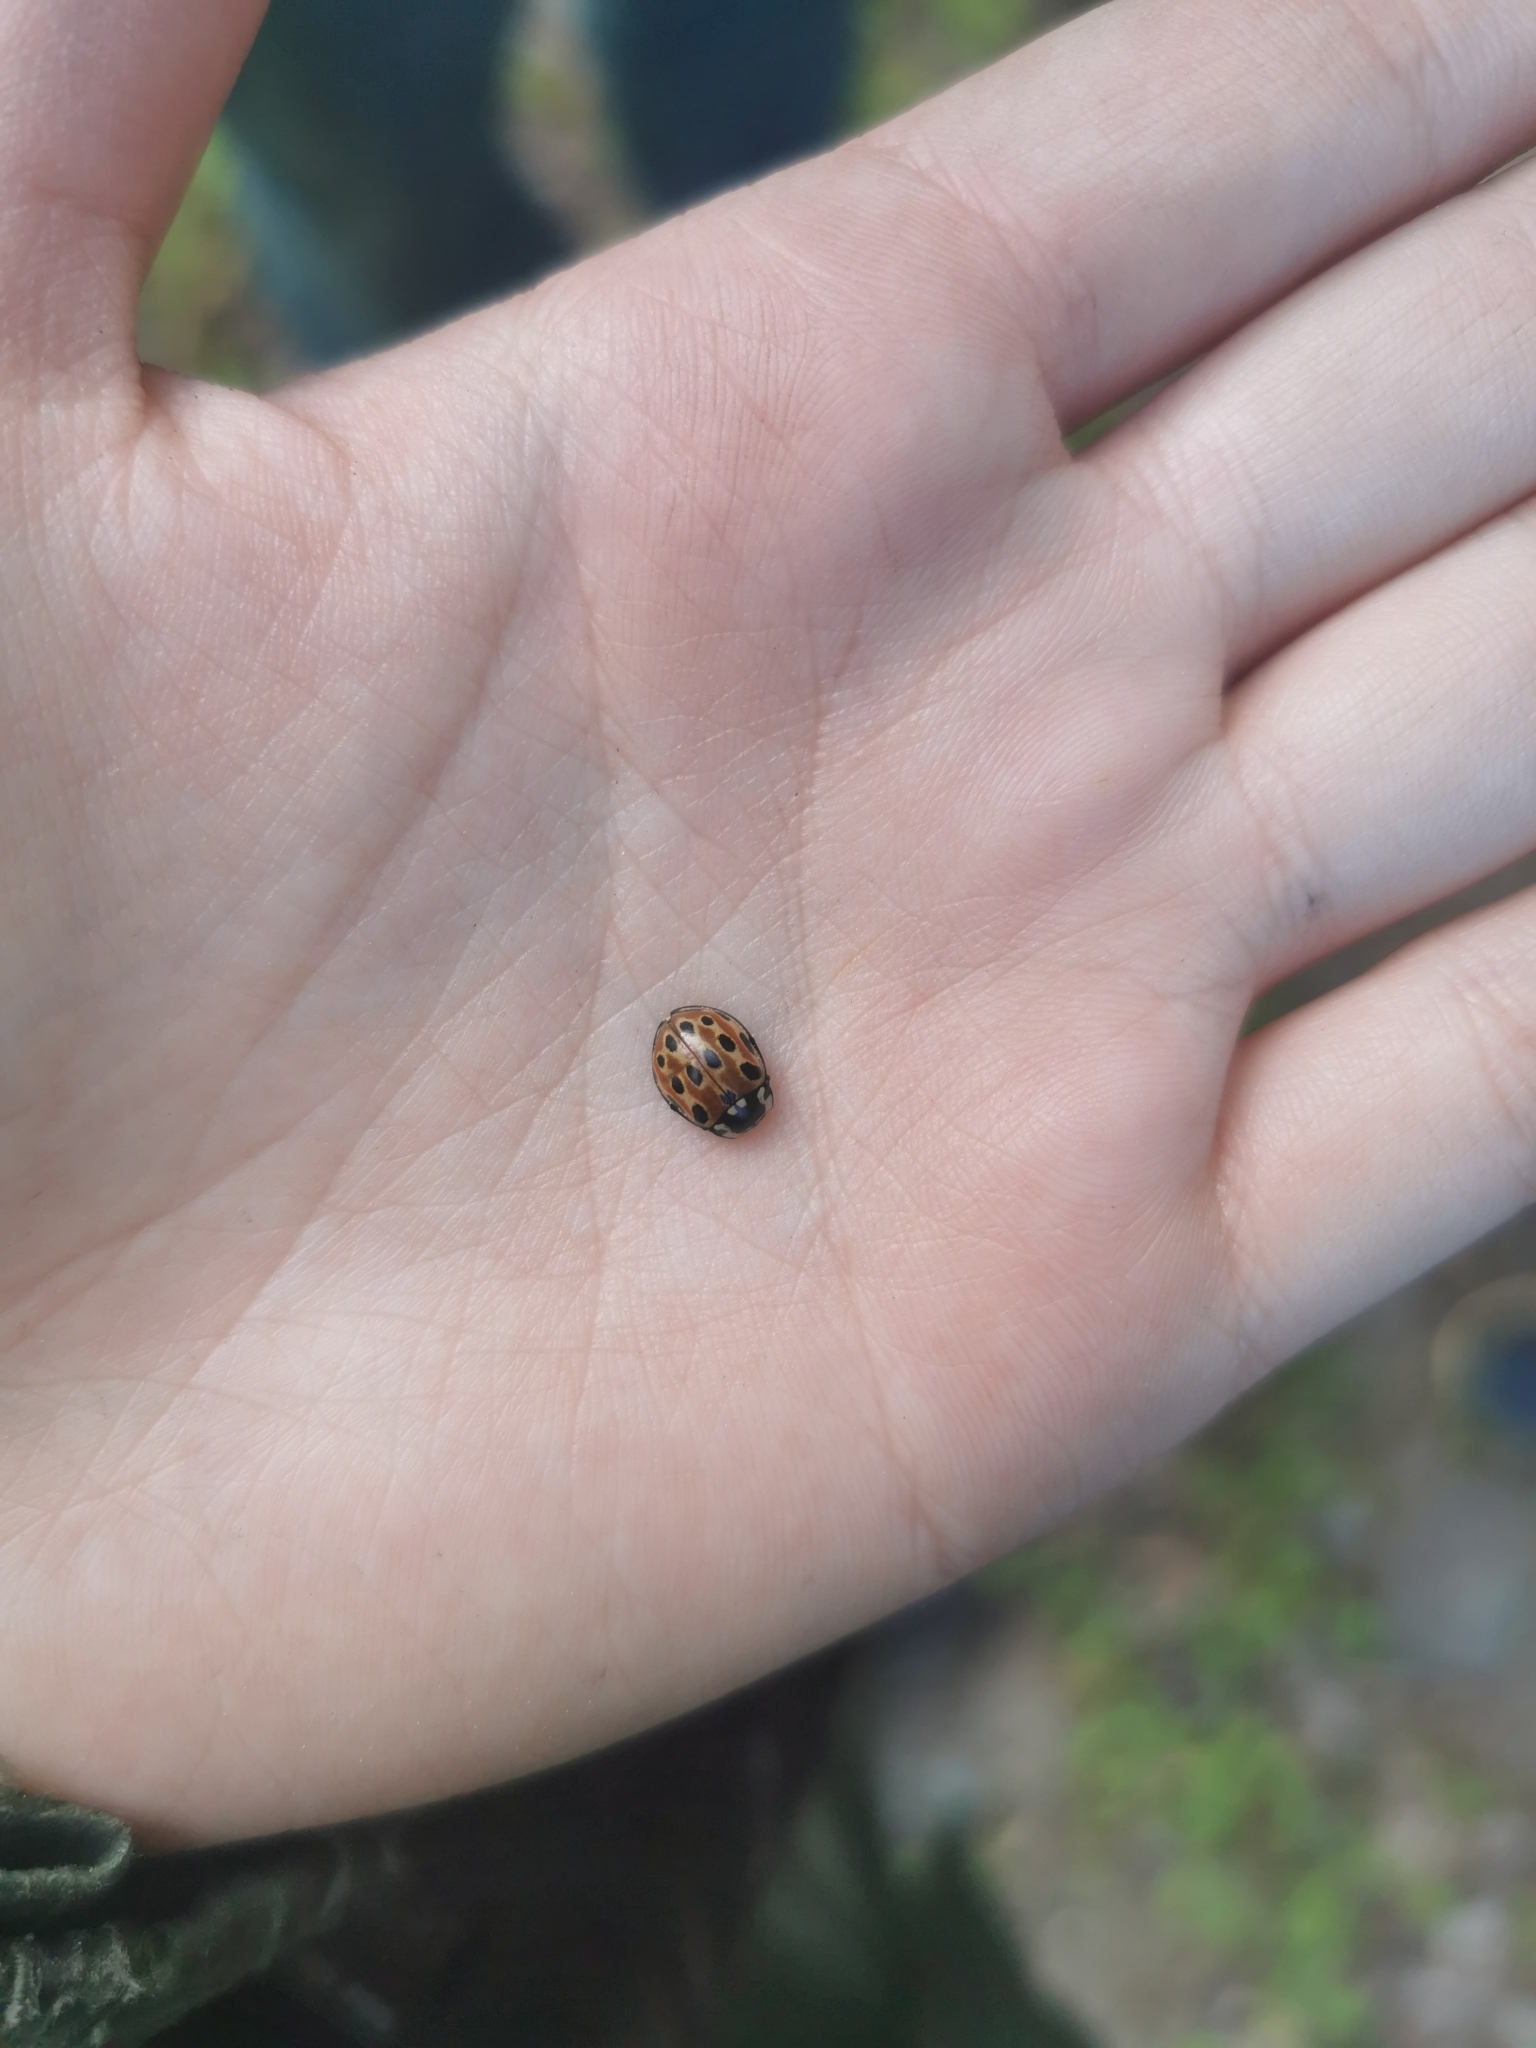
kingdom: Animalia
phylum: Arthropoda
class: Insecta
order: Coleoptera
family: Coccinellidae
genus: Anatis
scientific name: Anatis ocellata
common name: Eyed ladybird
